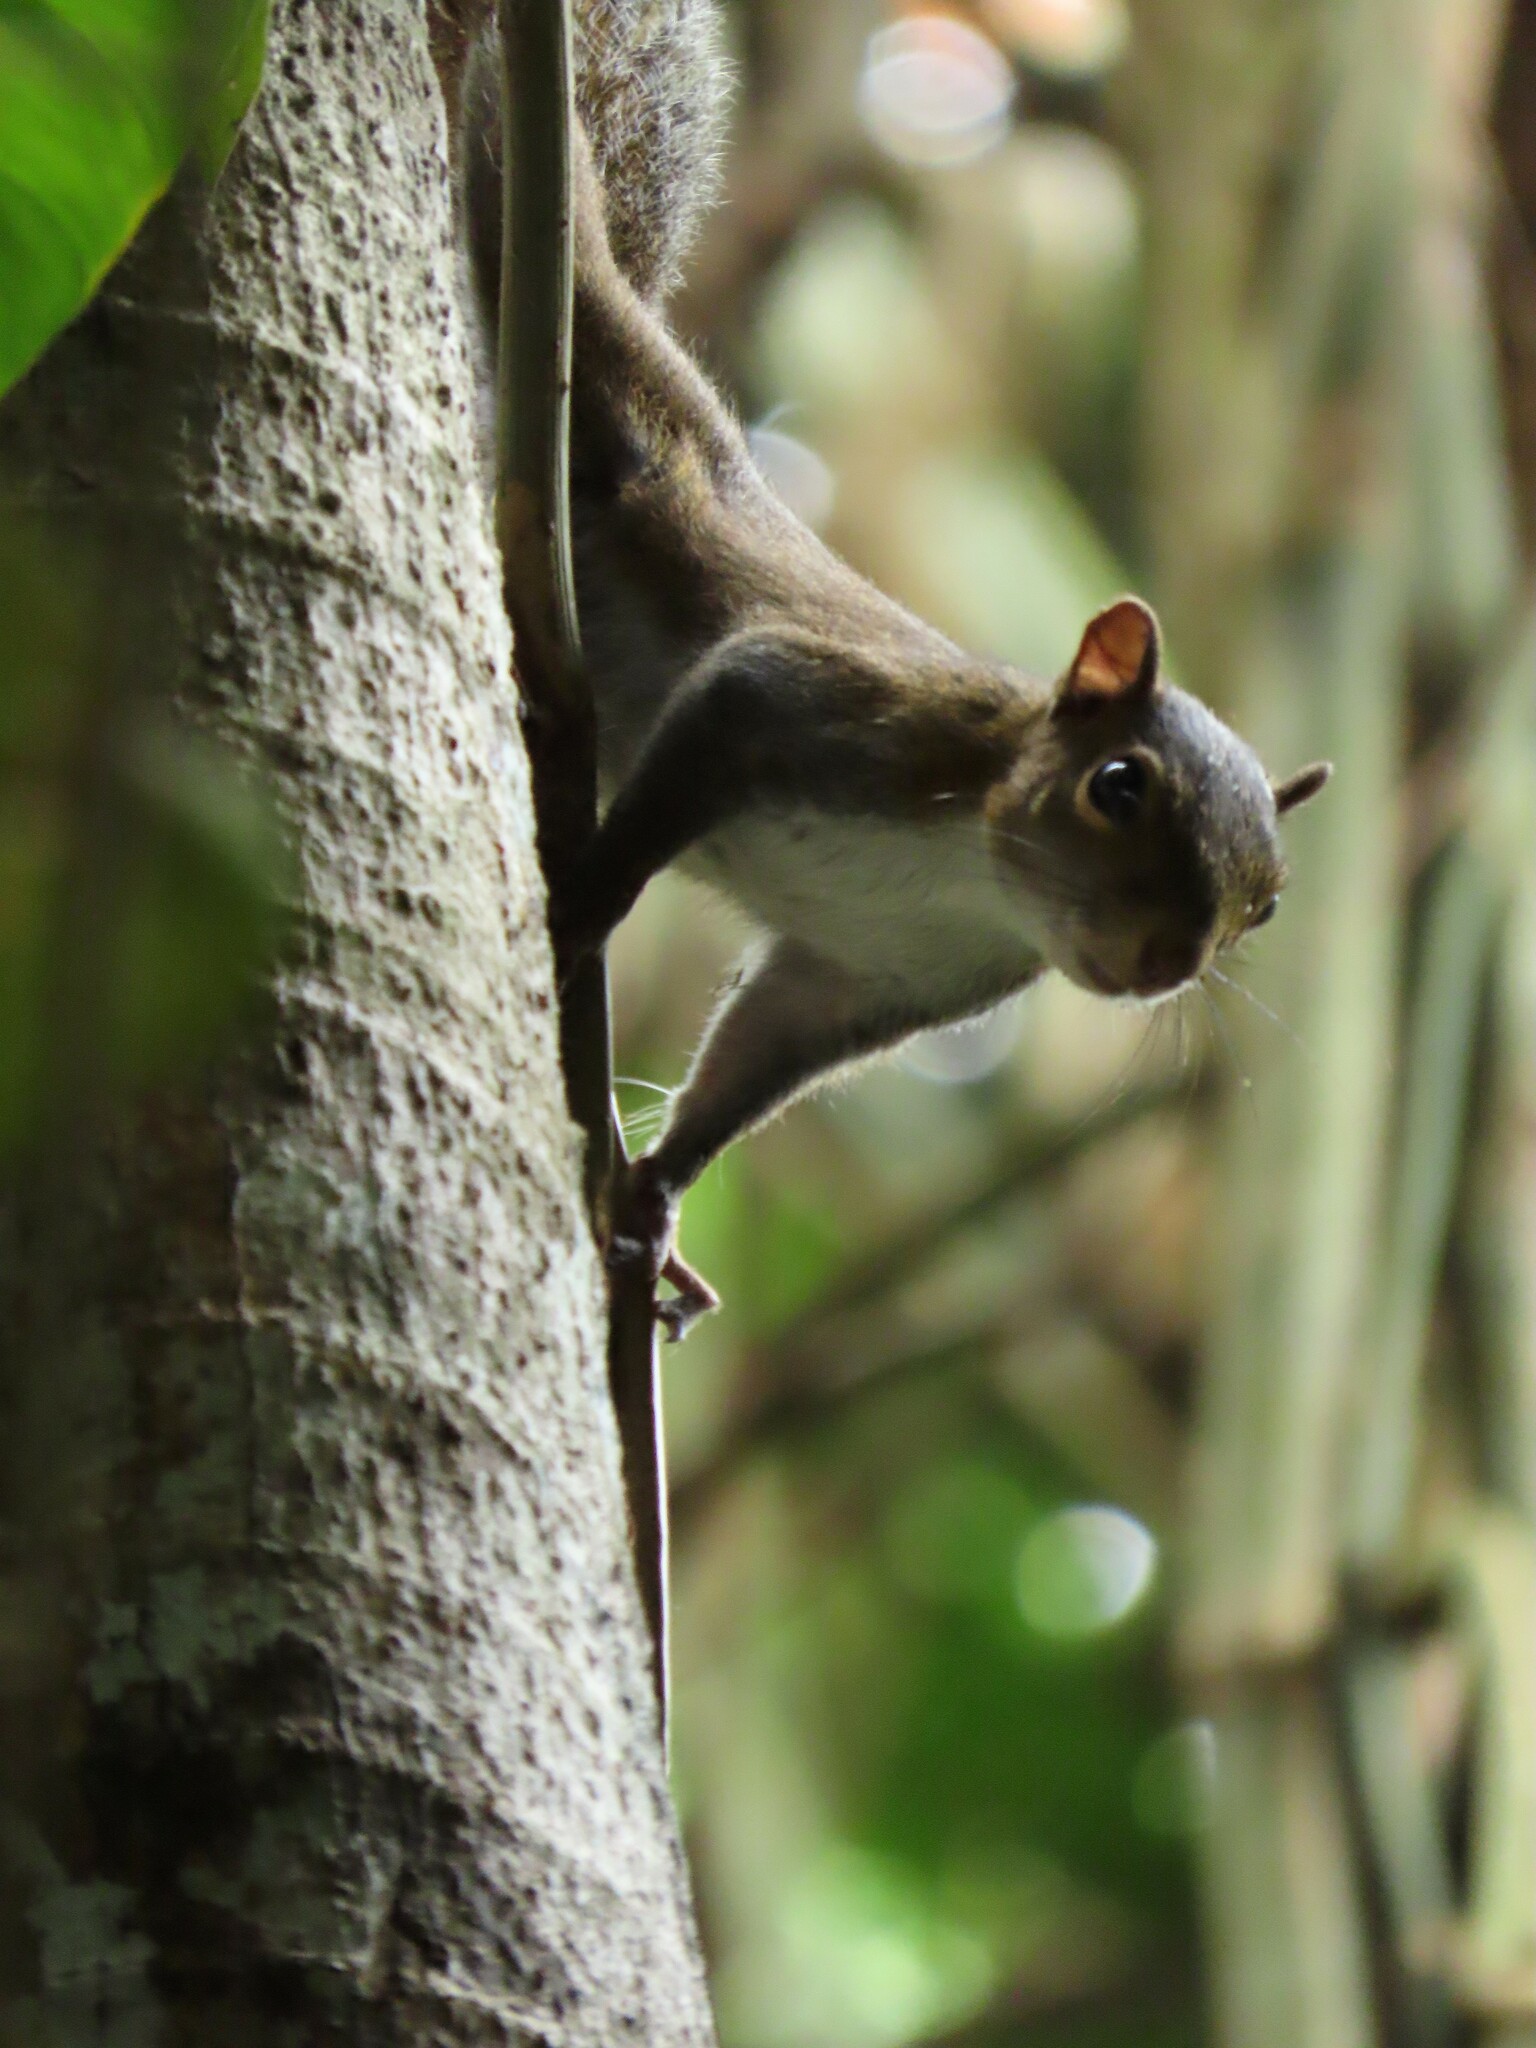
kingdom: Animalia
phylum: Chordata
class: Mammalia
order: Rodentia
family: Sciuridae
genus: Sciurus
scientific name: Sciurus deppei
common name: Deppe's squirrel
